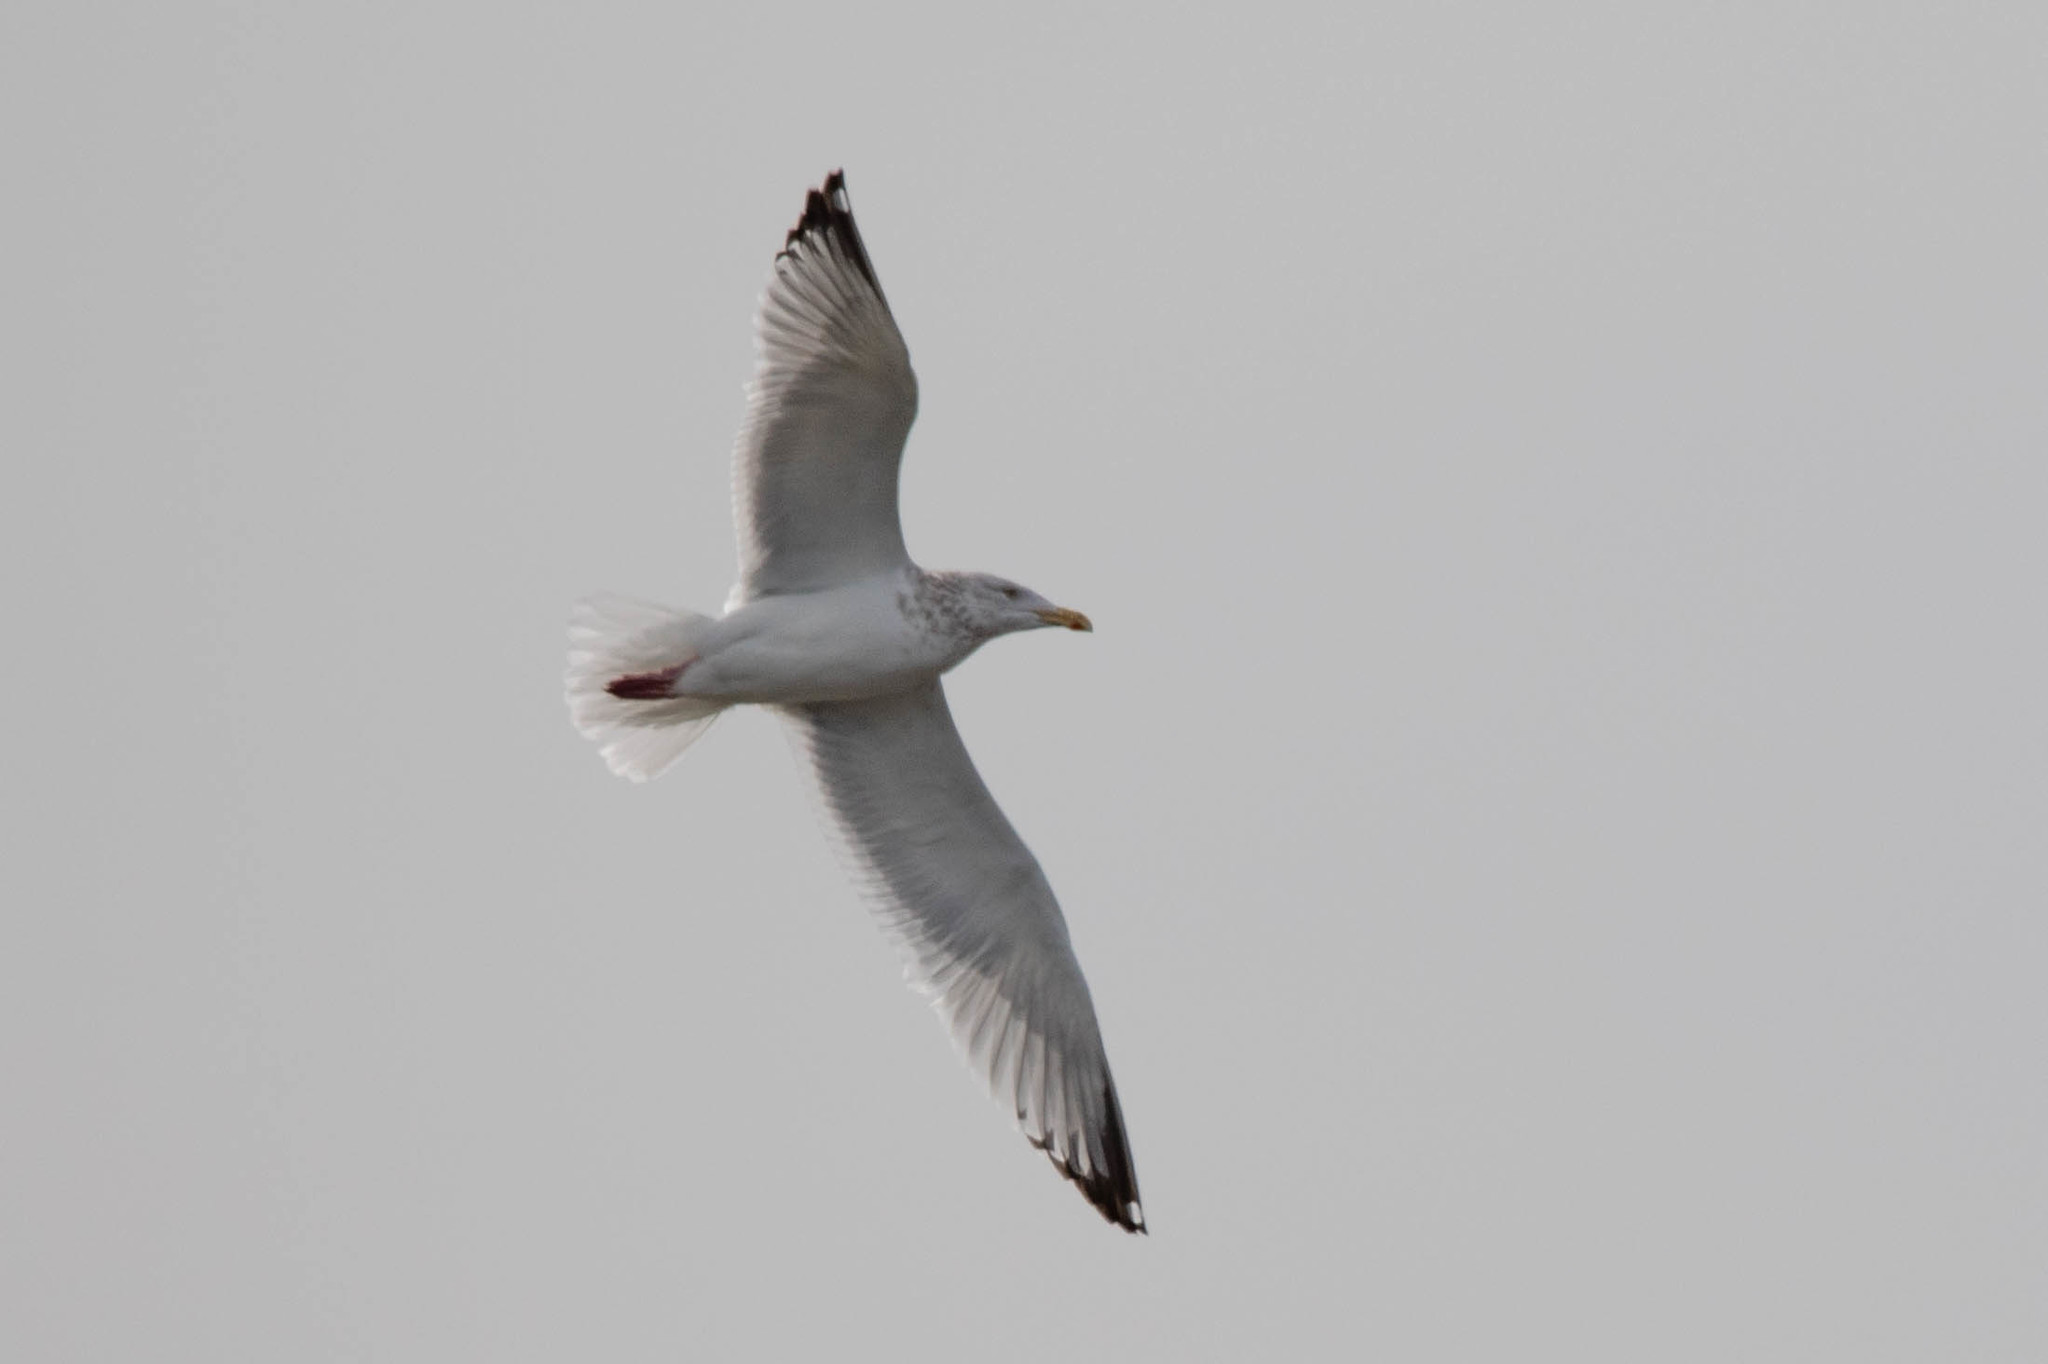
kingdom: Animalia
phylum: Chordata
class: Aves
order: Charadriiformes
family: Laridae
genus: Larus
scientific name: Larus argentatus
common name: Herring gull
